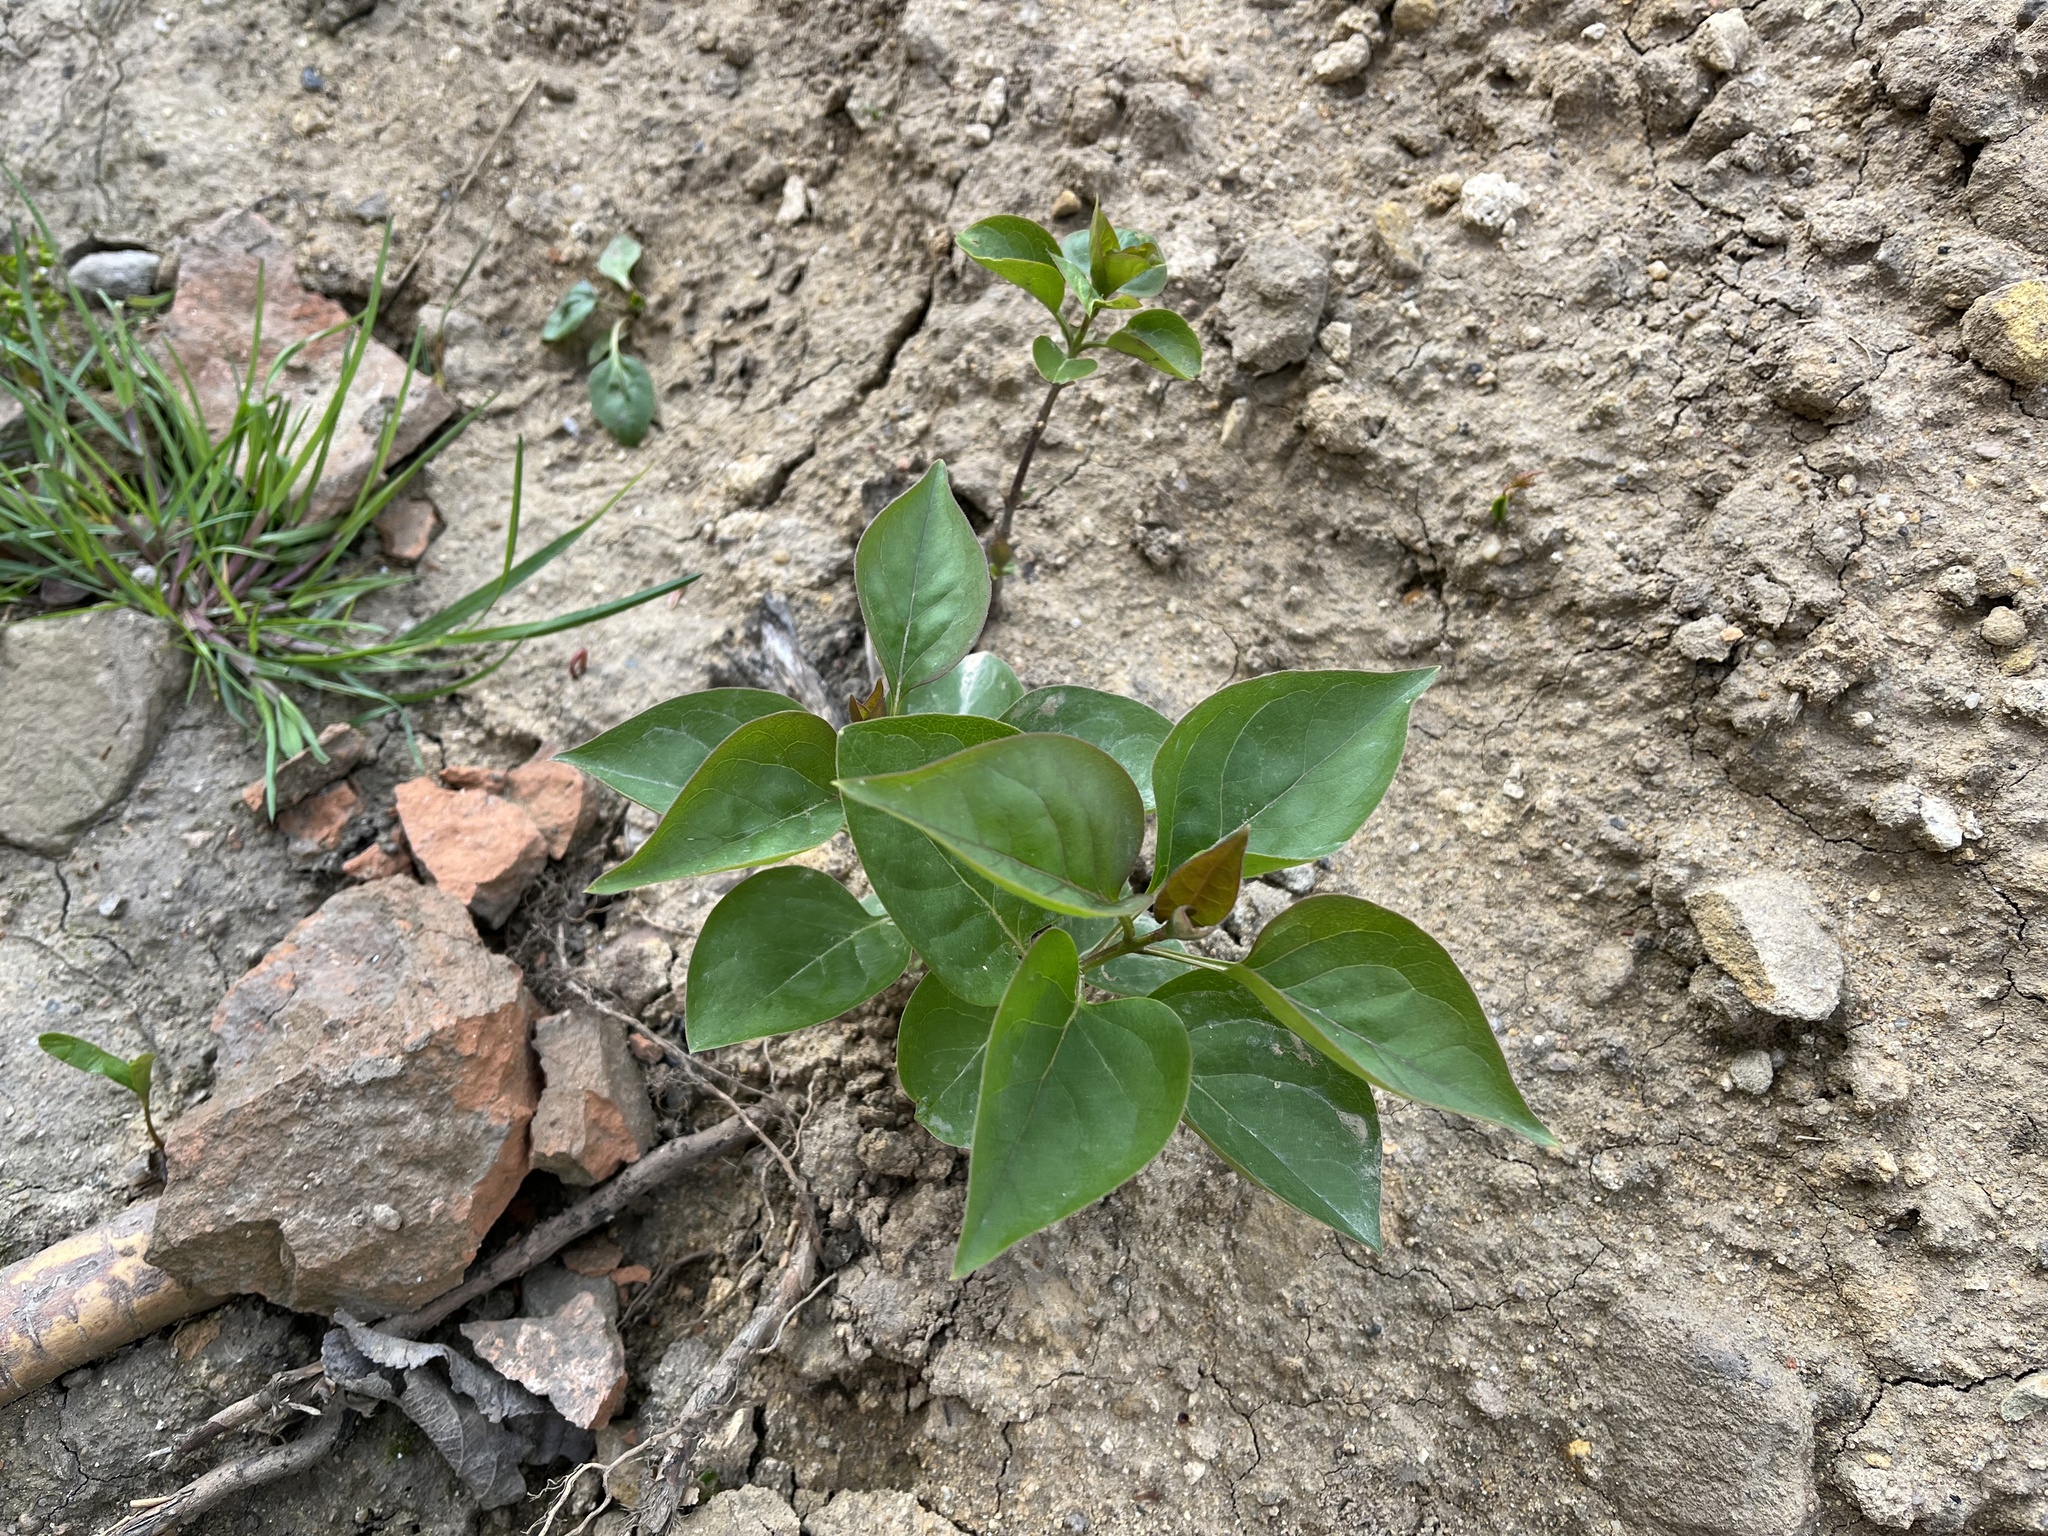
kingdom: Plantae
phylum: Tracheophyta
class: Magnoliopsida
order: Lamiales
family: Oleaceae
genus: Syringa
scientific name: Syringa vulgaris
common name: Common lilac
